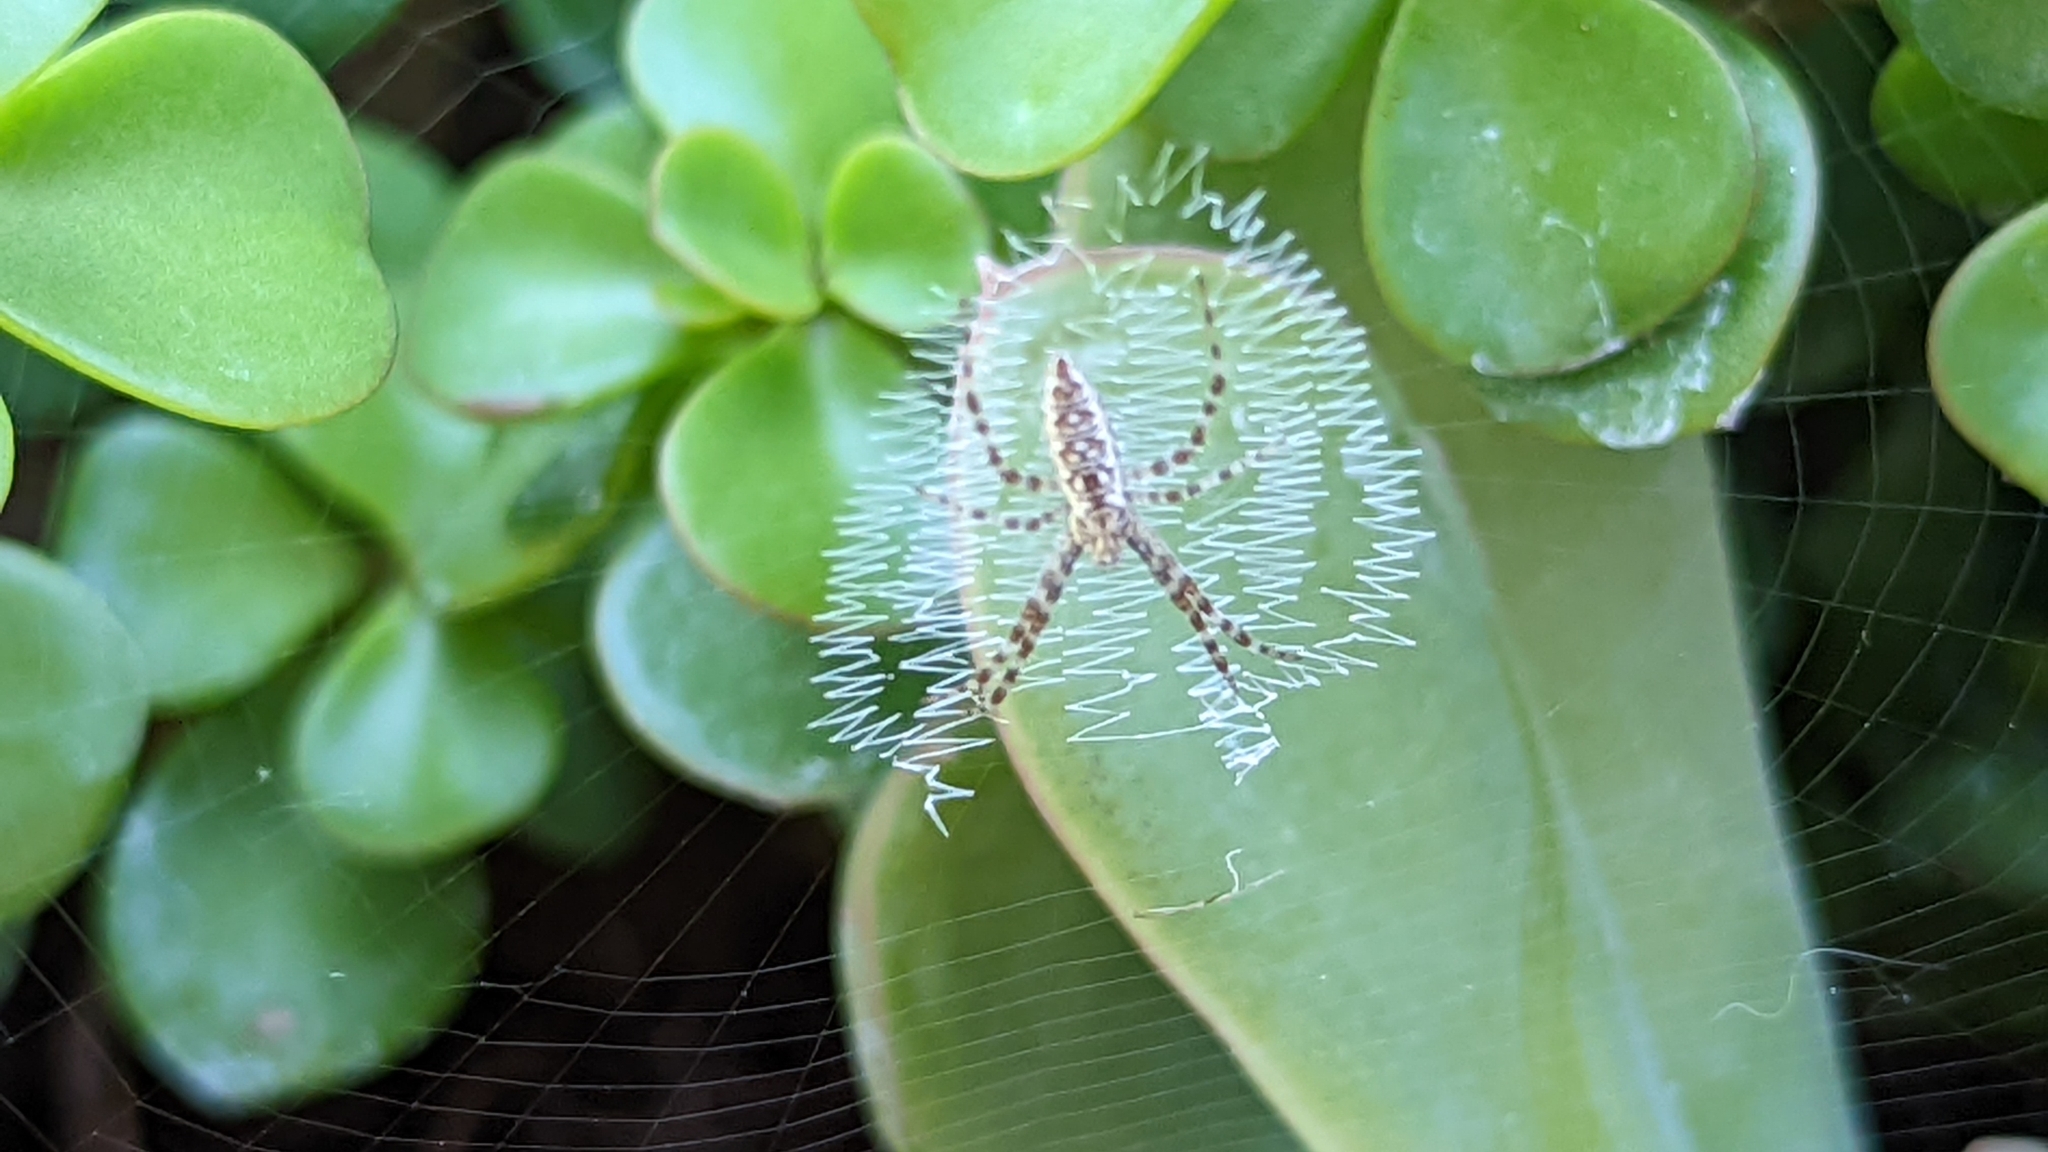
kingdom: Animalia
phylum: Arthropoda
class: Arachnida
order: Araneae
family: Araneidae
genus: Argiope
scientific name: Argiope aurantia
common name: Orb weavers
